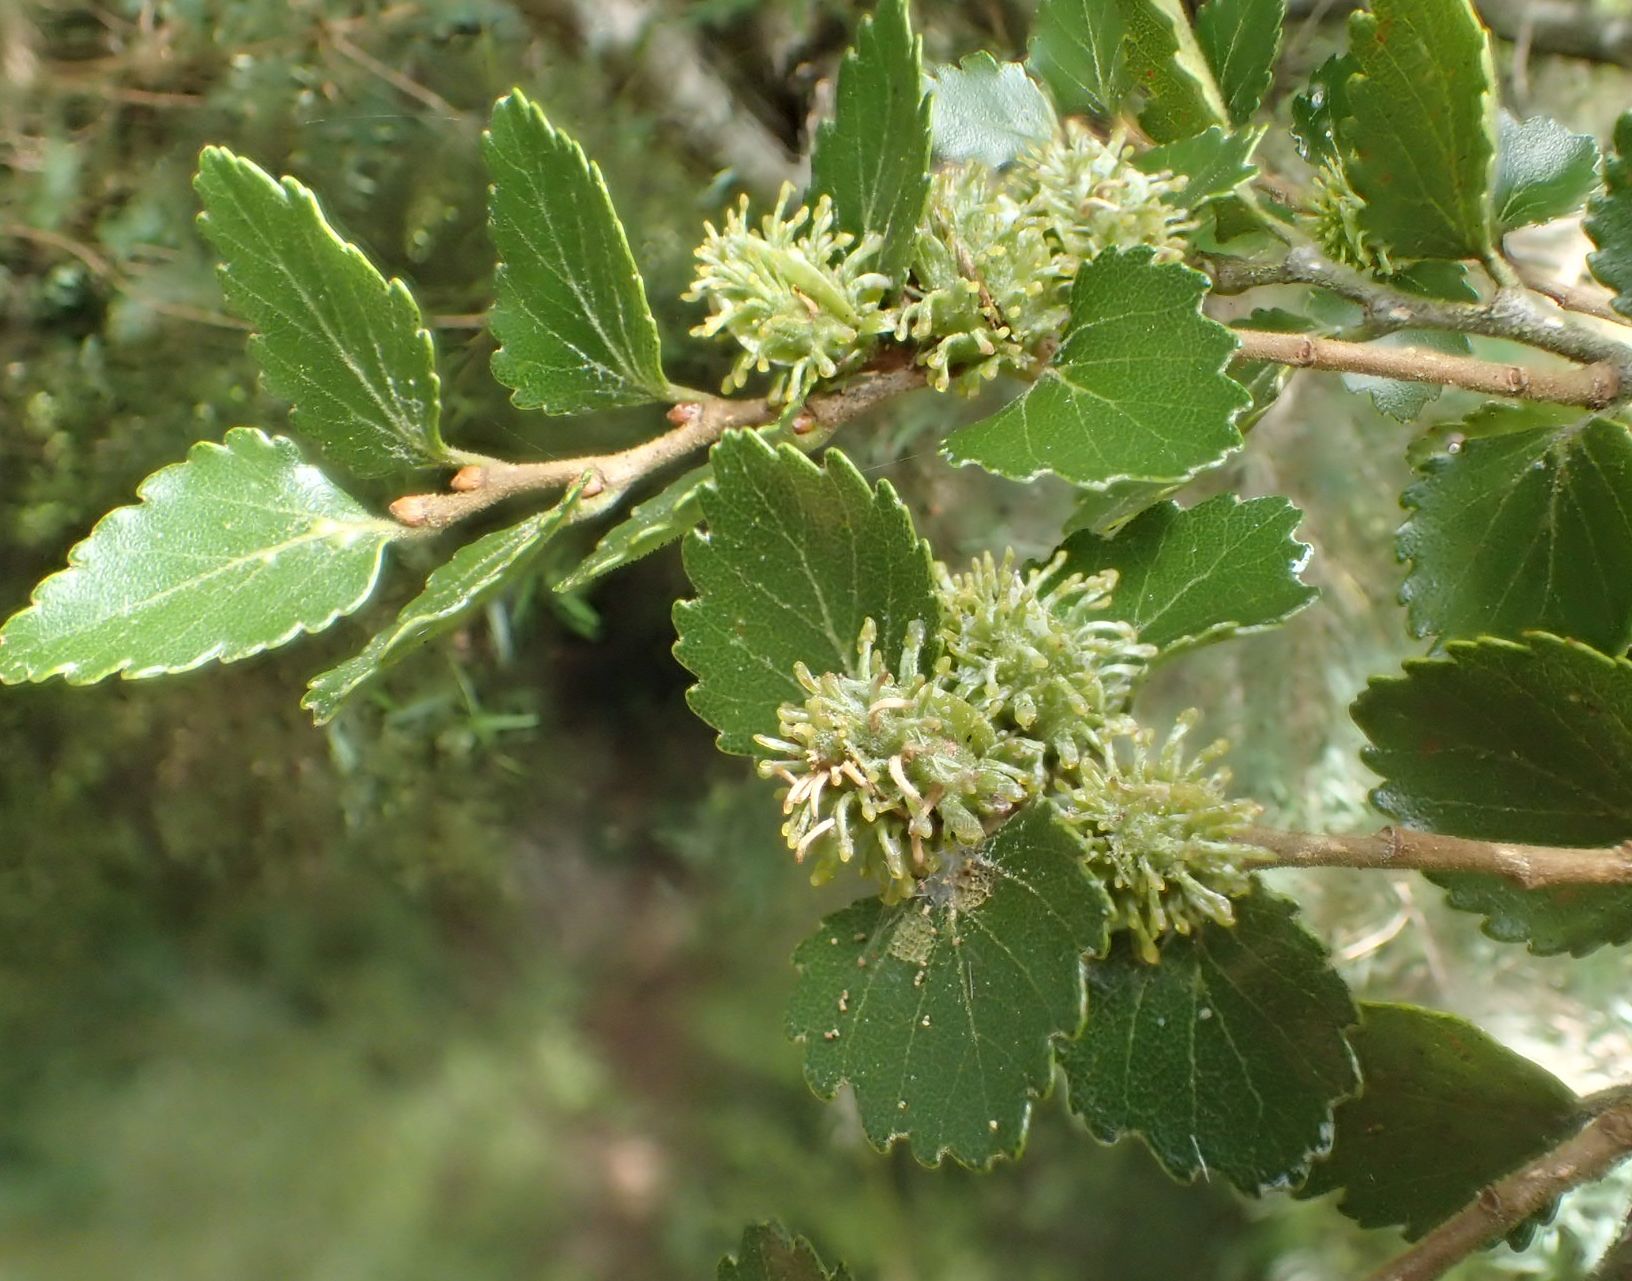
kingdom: Plantae
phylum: Tracheophyta
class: Magnoliopsida
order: Fagales
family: Nothofagaceae
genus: Nothofagus
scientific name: Nothofagus menziesii
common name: Silver beech
